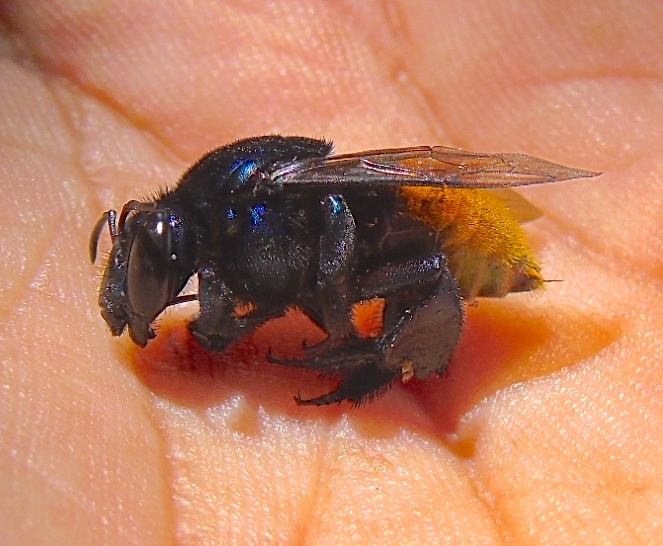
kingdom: Animalia
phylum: Arthropoda
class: Insecta
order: Hymenoptera
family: Apidae
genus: Apidae
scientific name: Apidae
